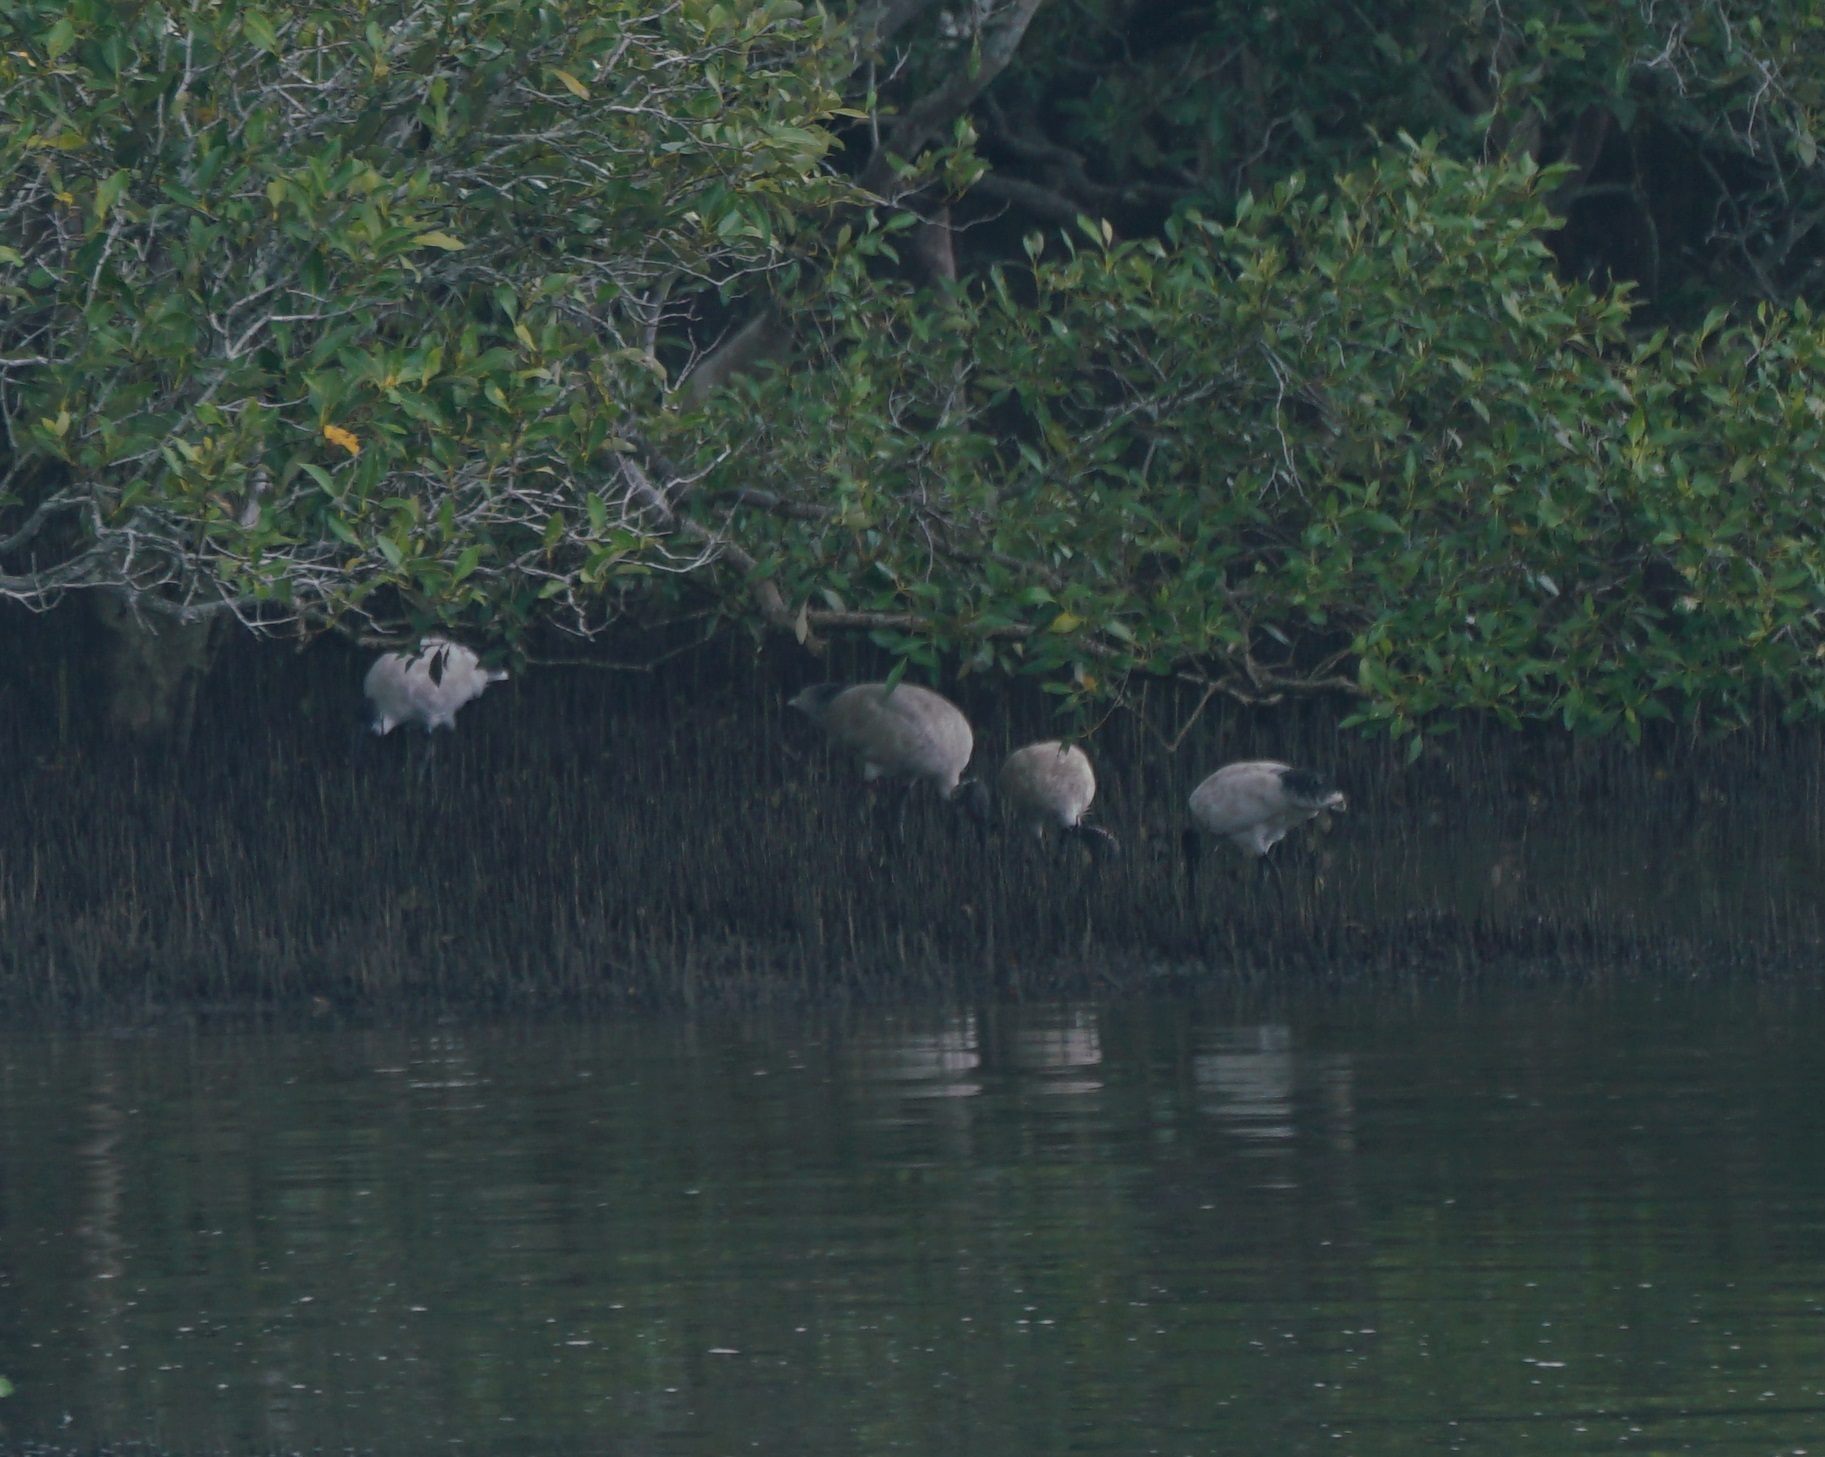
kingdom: Animalia
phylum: Chordata
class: Aves
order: Pelecaniformes
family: Threskiornithidae
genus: Threskiornis
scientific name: Threskiornis molucca
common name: Australian white ibis
